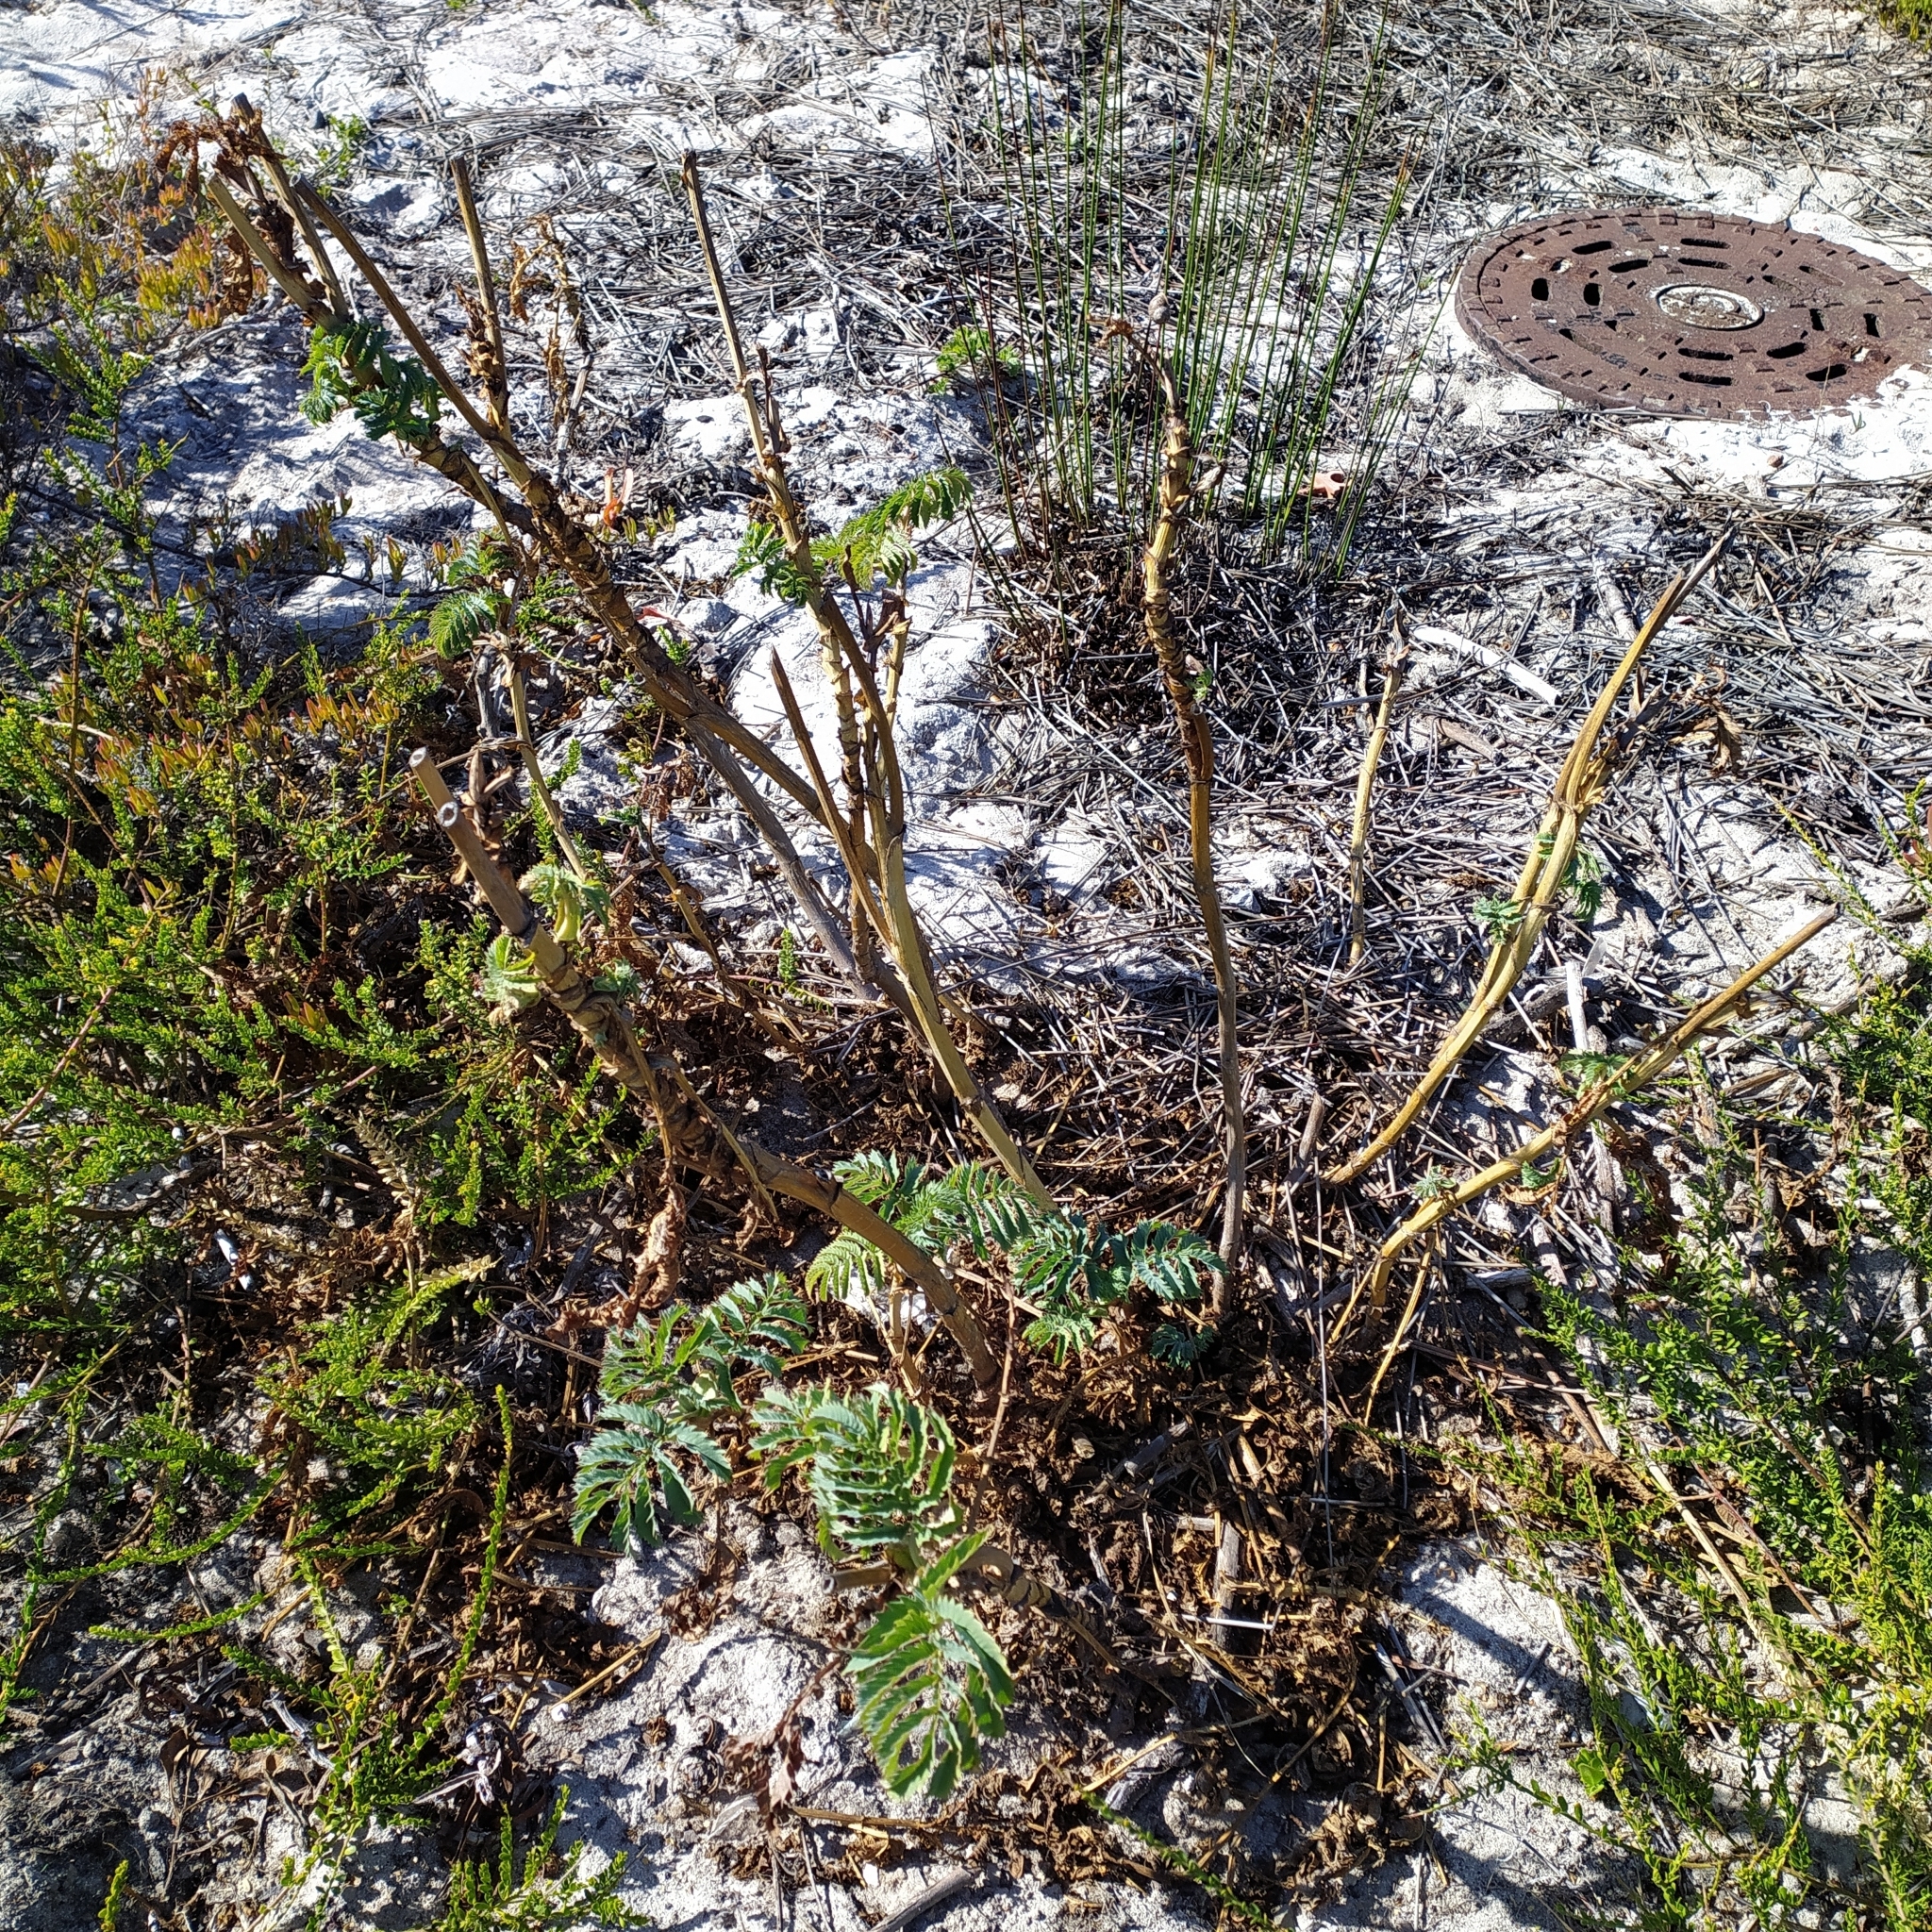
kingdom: Plantae
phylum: Tracheophyta
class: Magnoliopsida
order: Geraniales
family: Melianthaceae
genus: Melianthus
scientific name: Melianthus major
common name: Honey-flower
